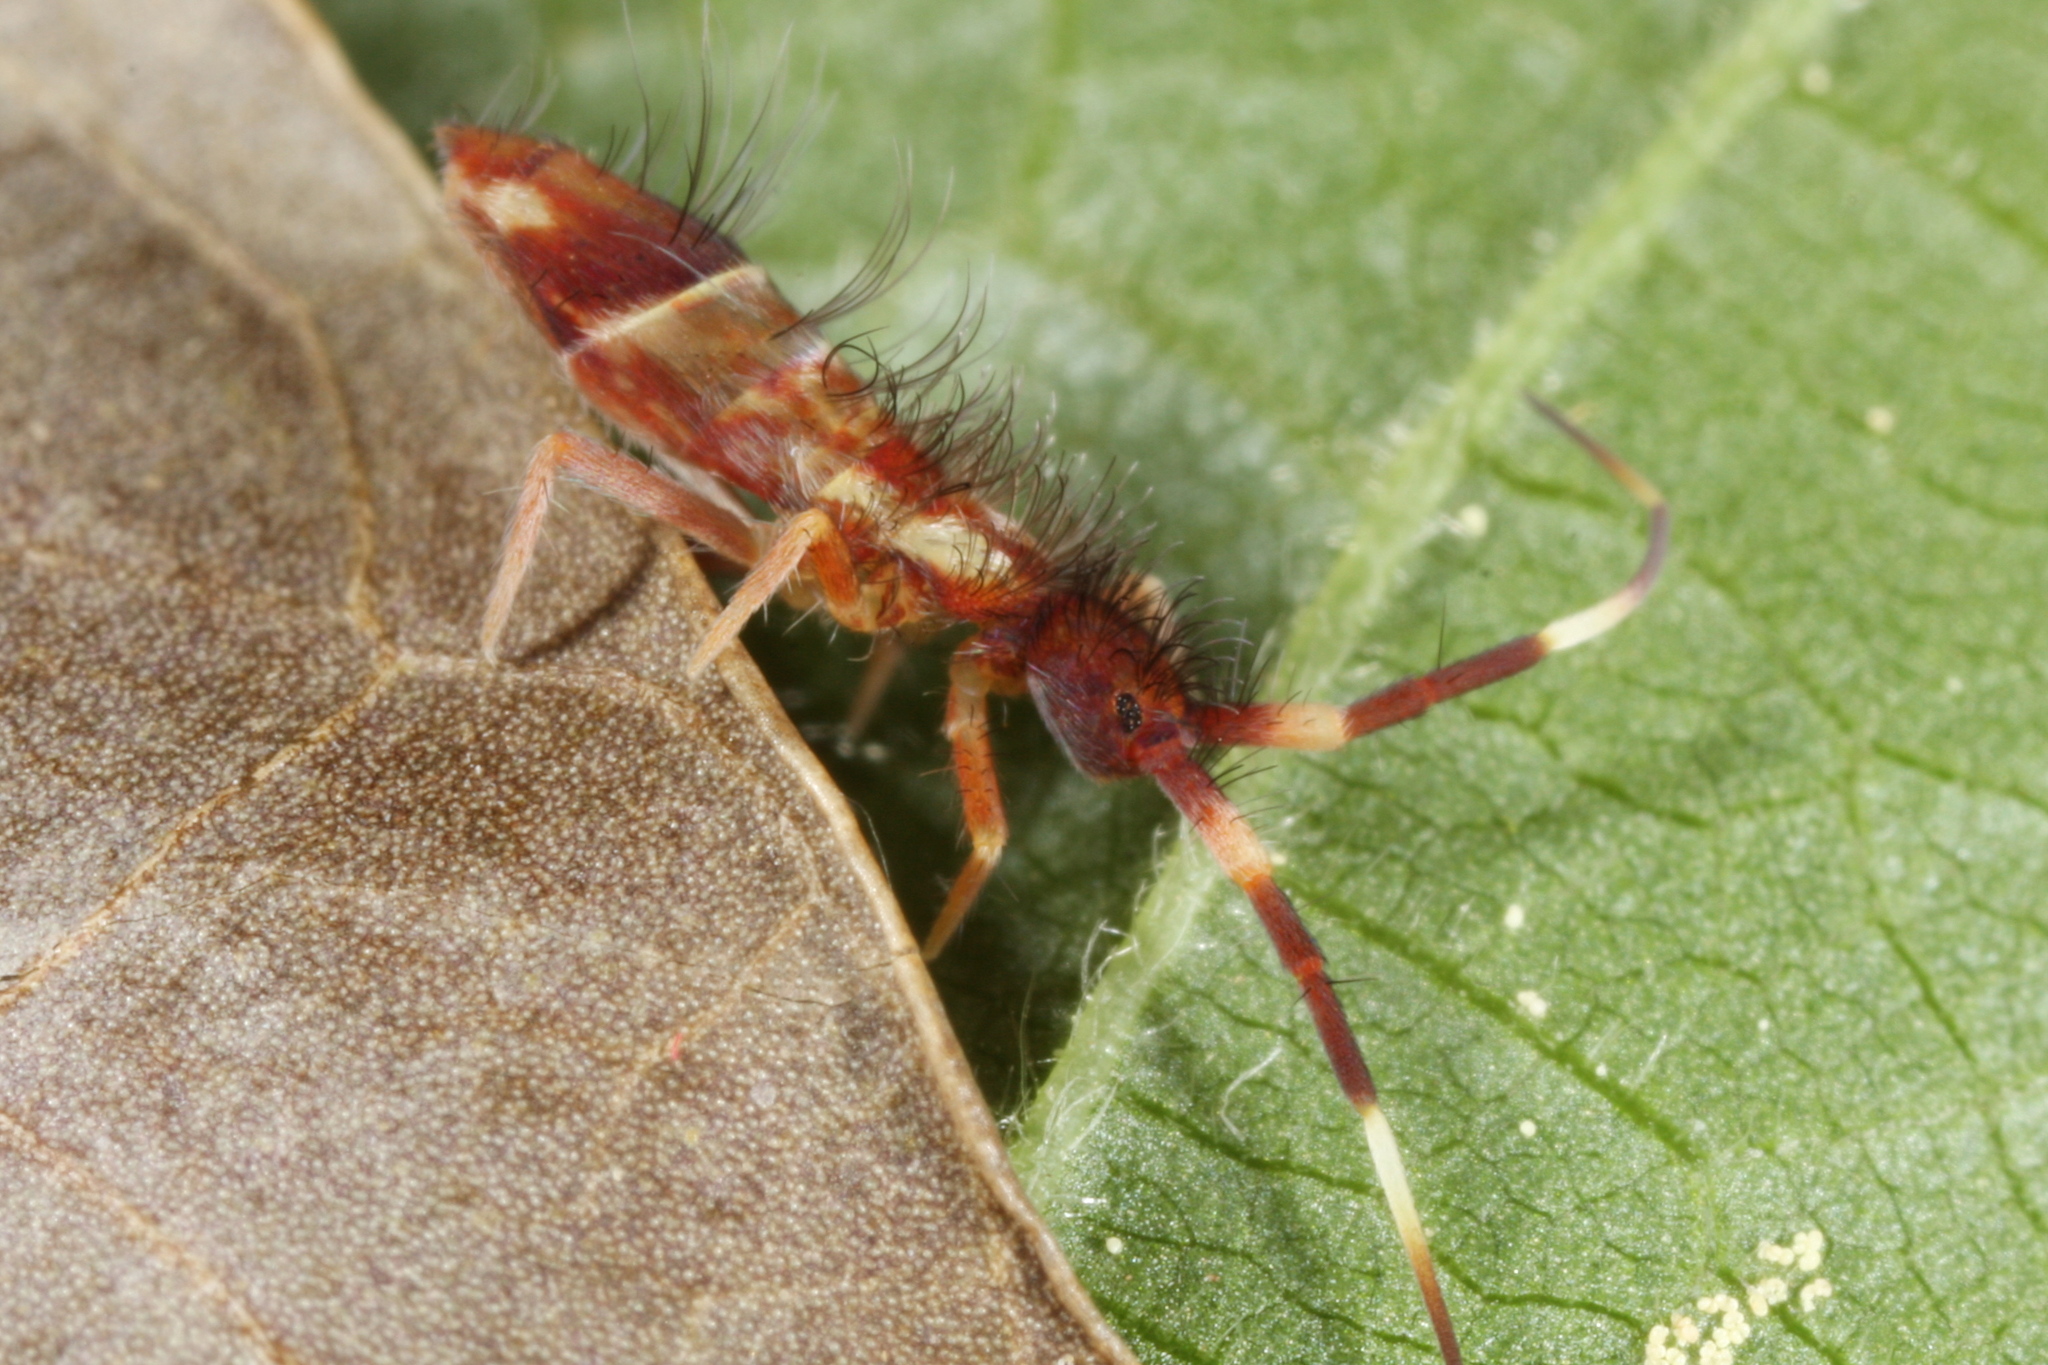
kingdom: Animalia
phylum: Arthropoda
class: Collembola
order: Entomobryomorpha
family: Entomobryidae
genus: Entomobrya
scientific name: Entomobrya nivalis
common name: Cosmopolitan springtail
